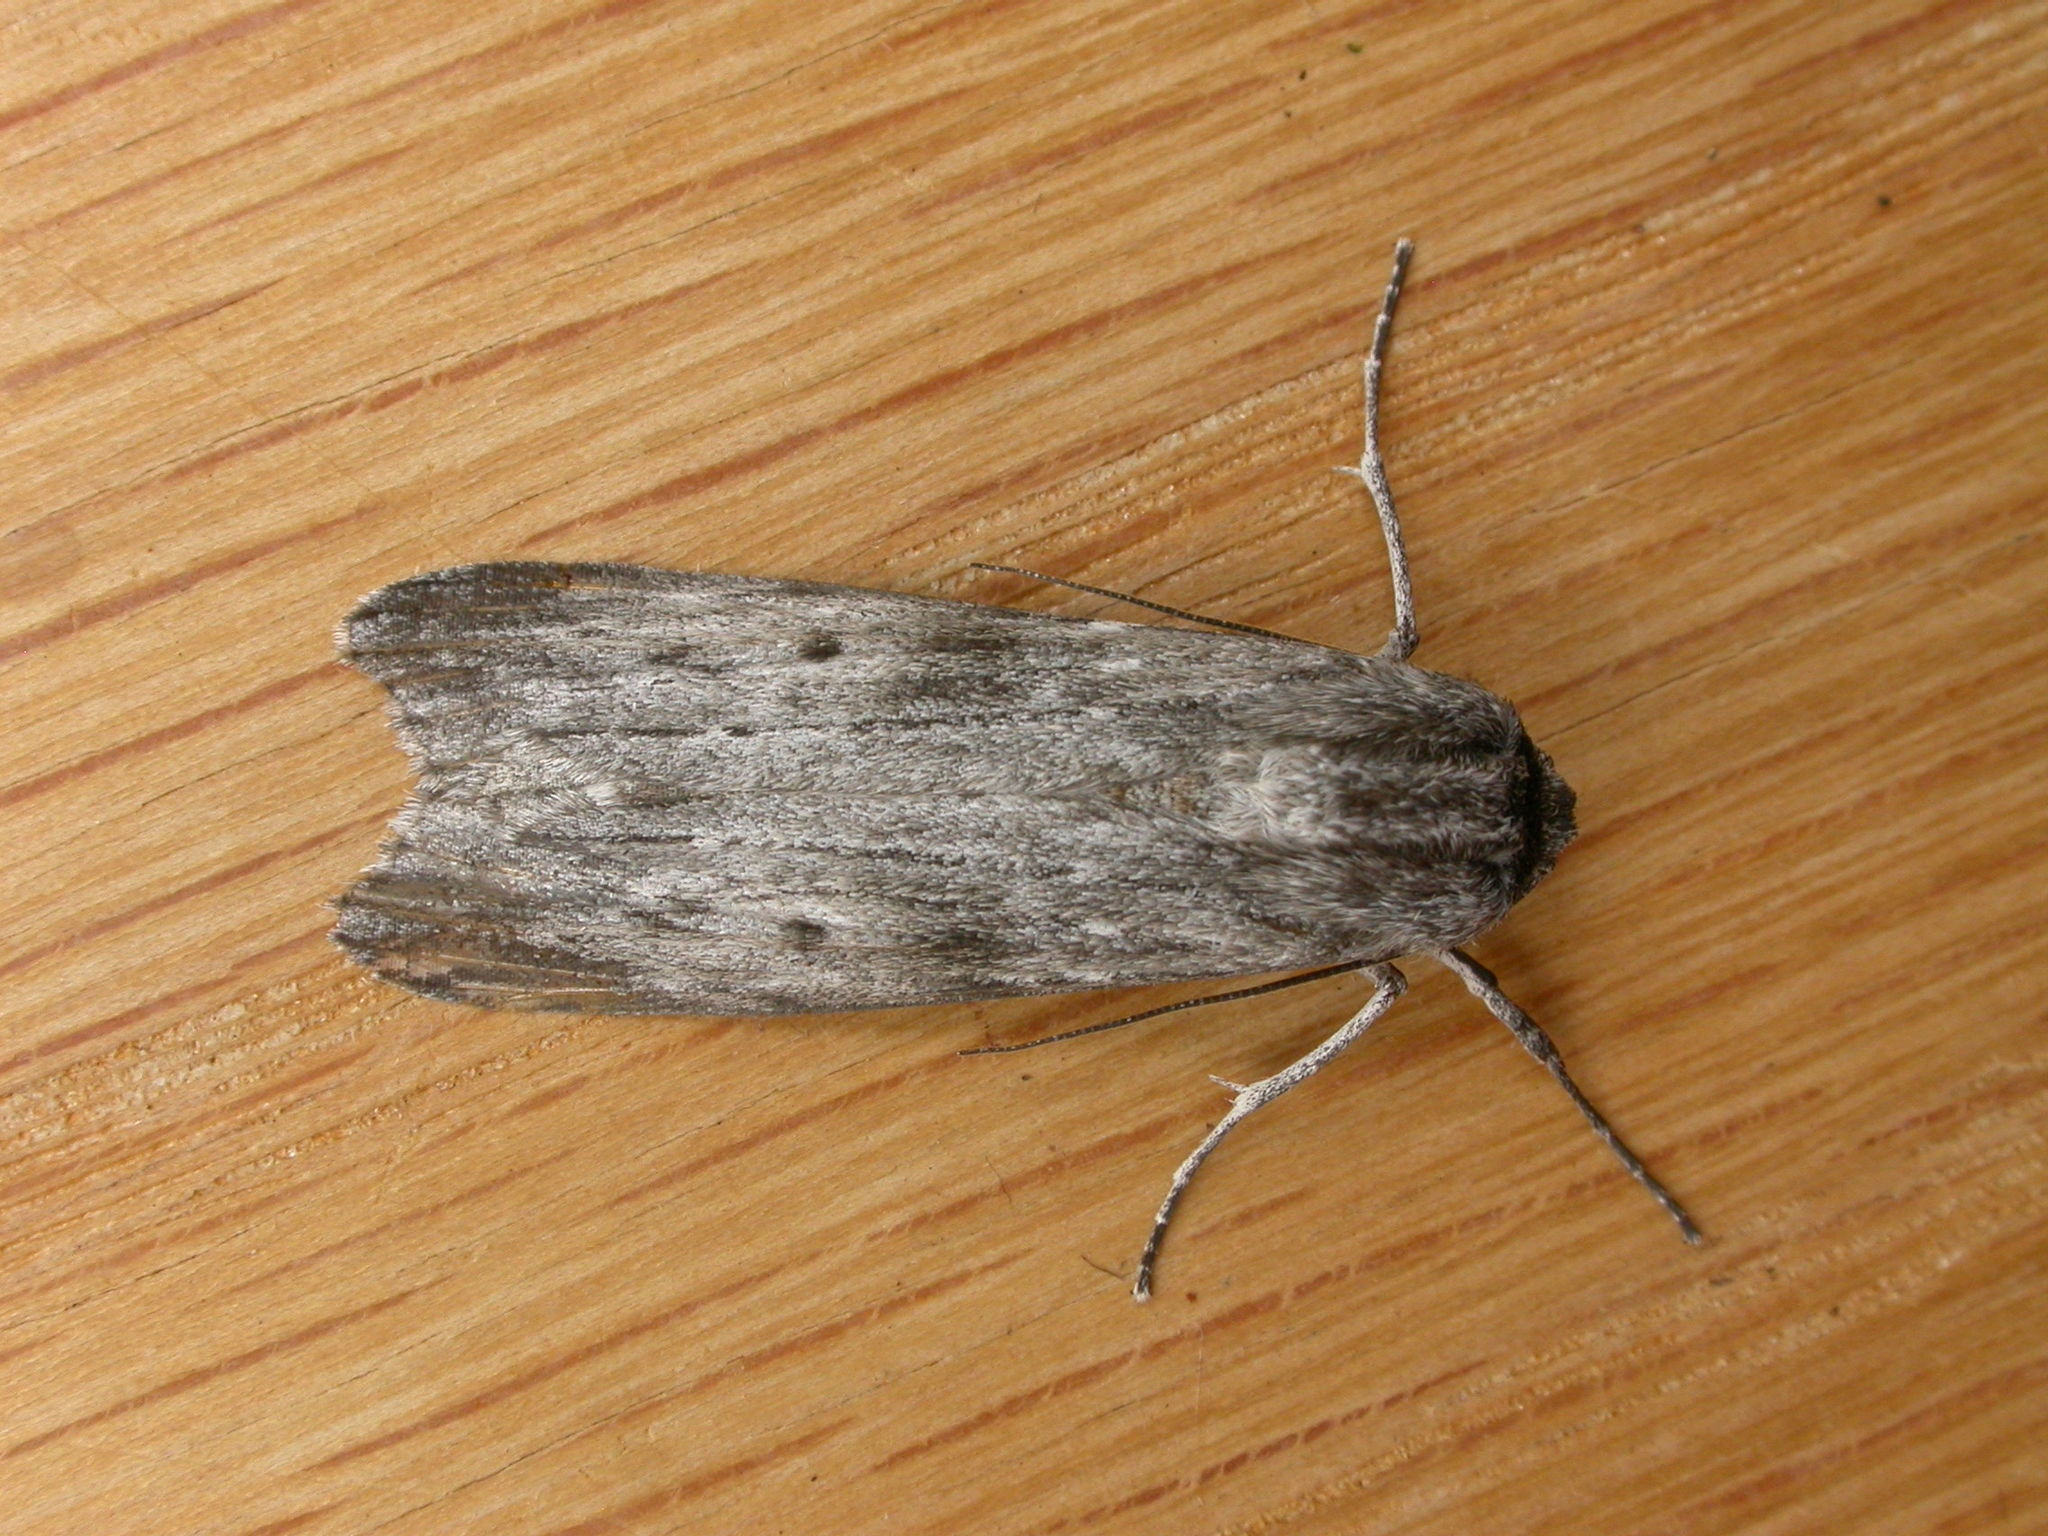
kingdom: Animalia
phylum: Arthropoda
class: Insecta
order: Lepidoptera
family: Geometridae
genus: Capusa
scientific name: Capusa senilis
